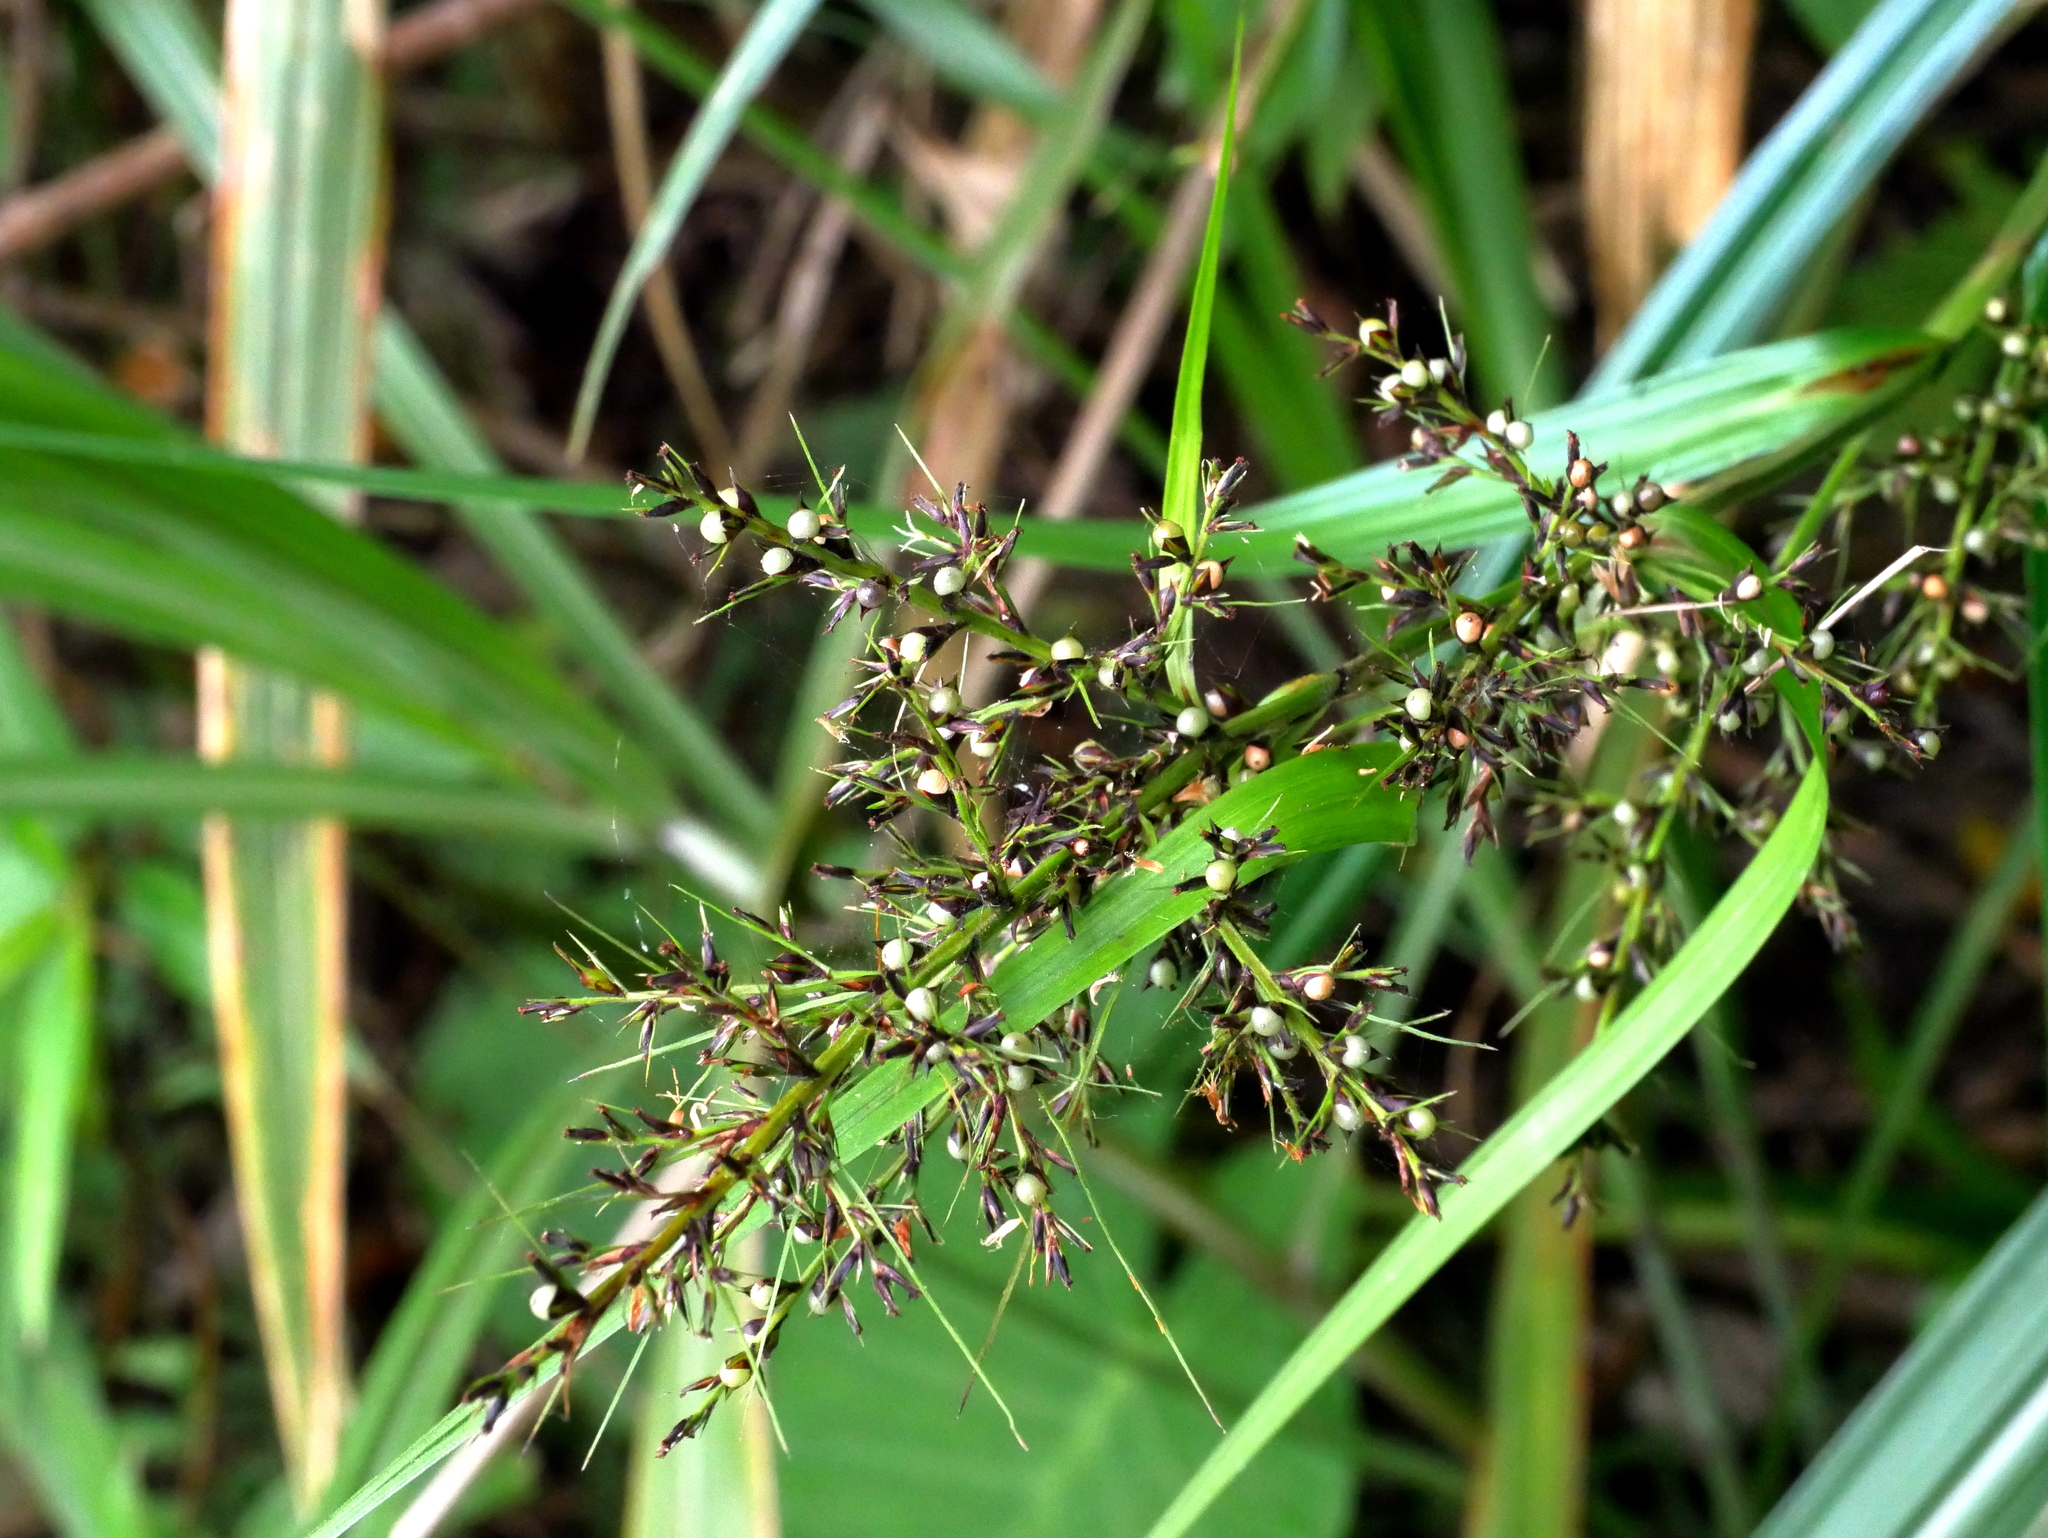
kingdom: Plantae
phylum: Tracheophyta
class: Liliopsida
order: Poales
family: Cyperaceae
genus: Scleria
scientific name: Scleria terrestris
